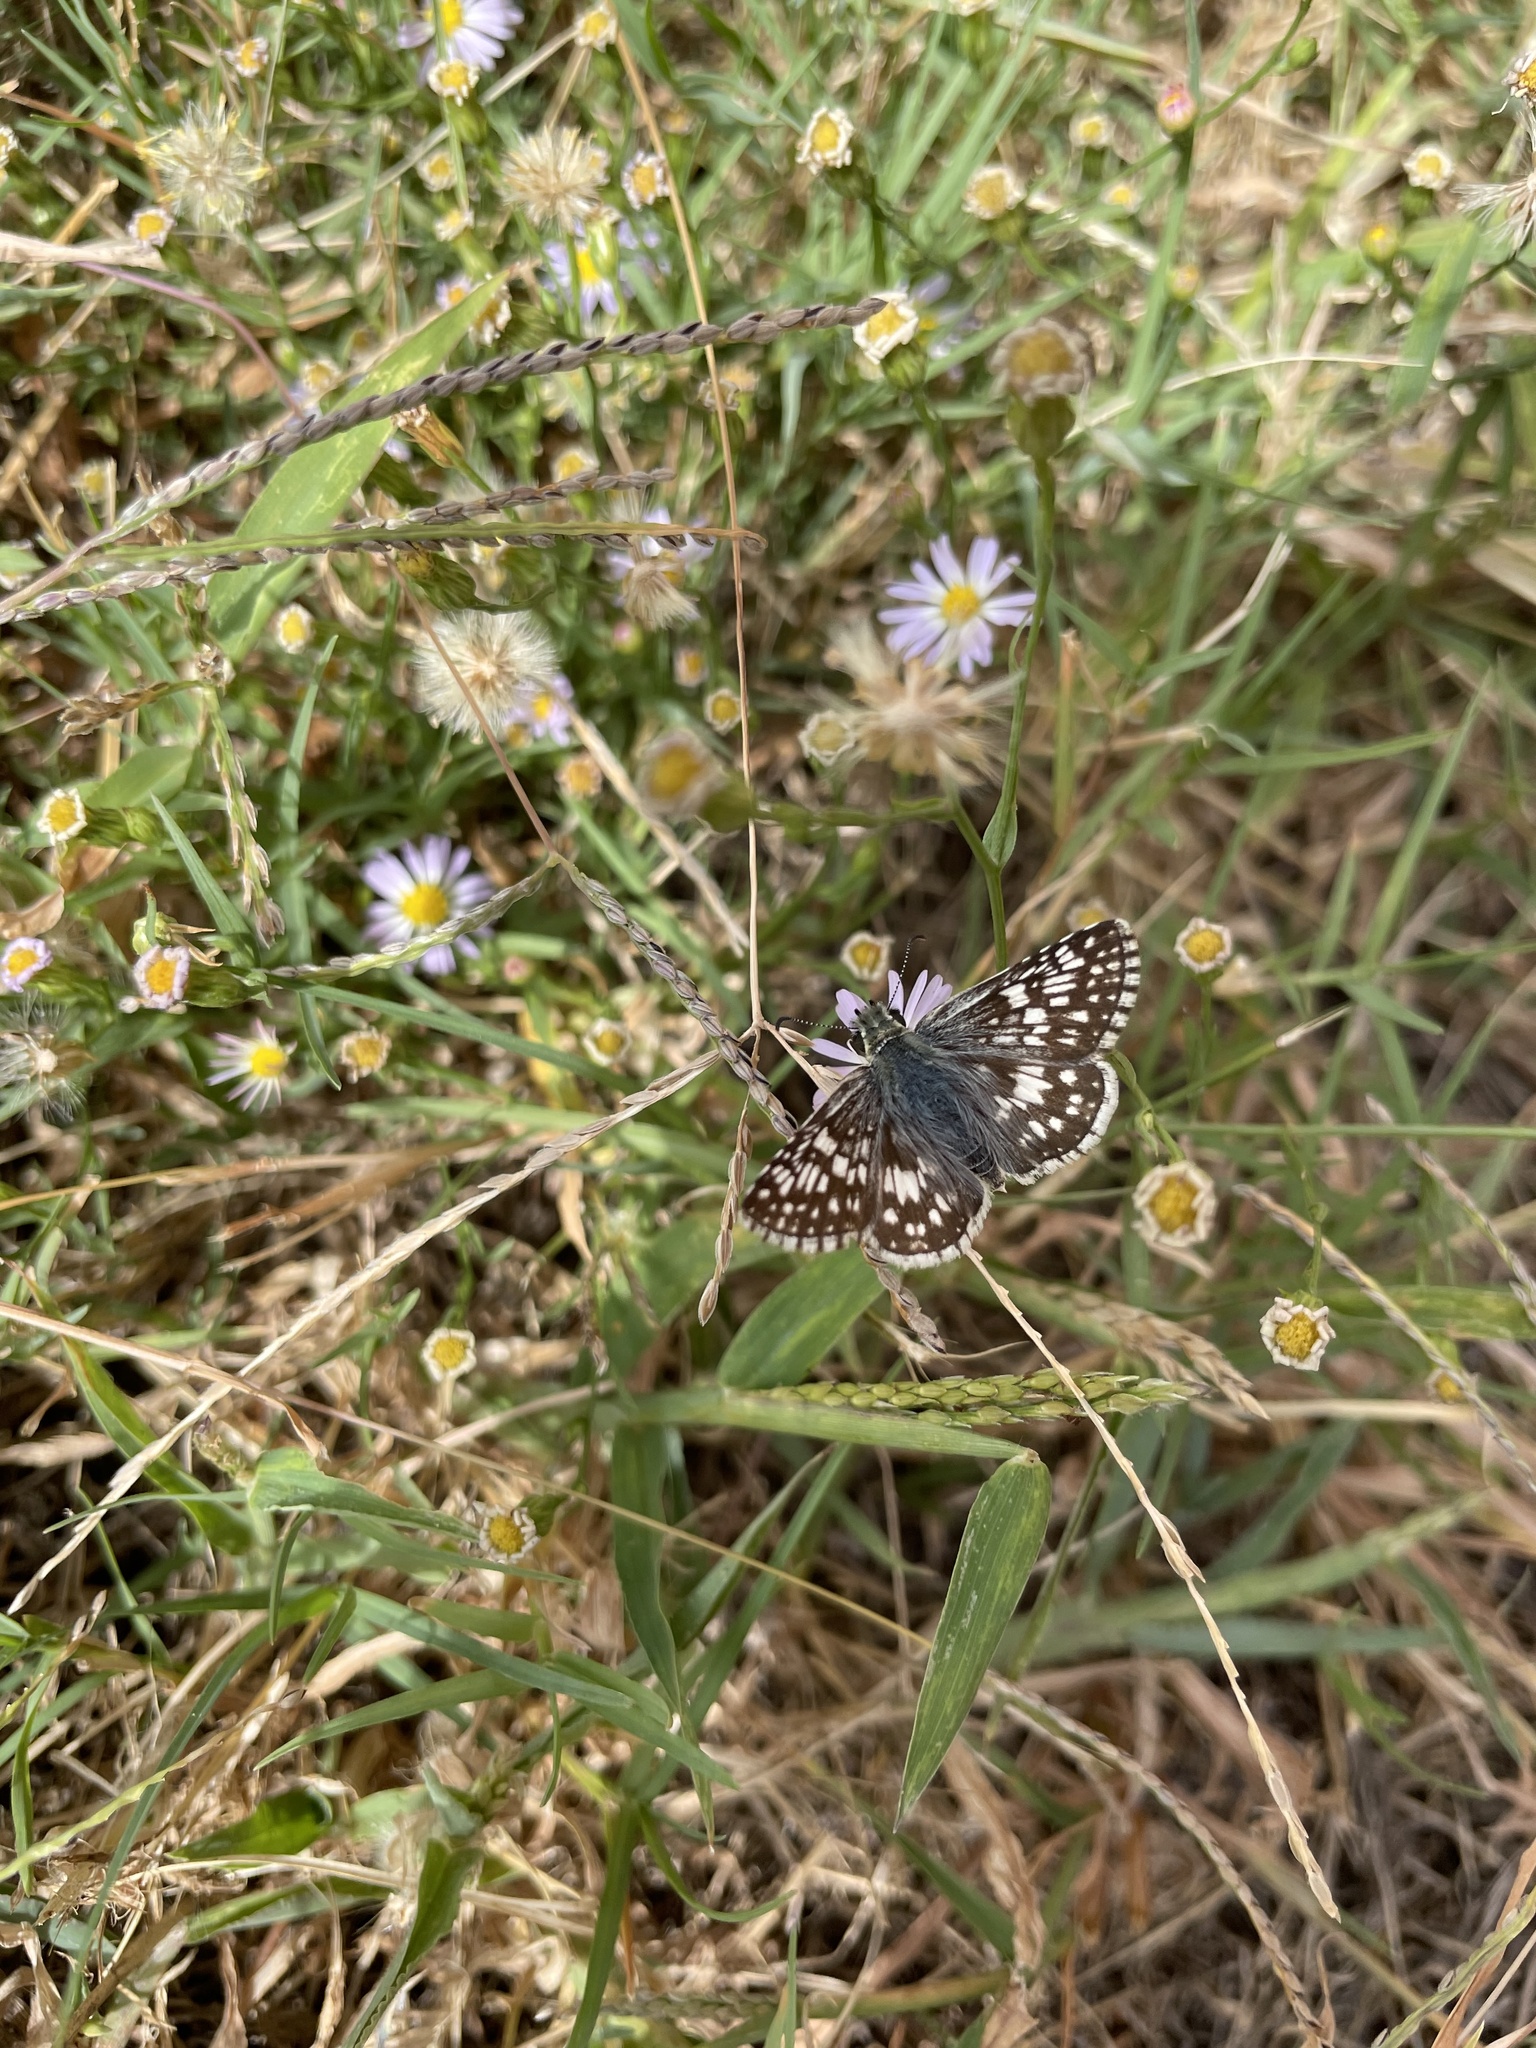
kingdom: Animalia
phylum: Arthropoda
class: Insecta
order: Lepidoptera
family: Hesperiidae
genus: Burnsius
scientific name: Burnsius communis
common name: Common checkered-skipper
